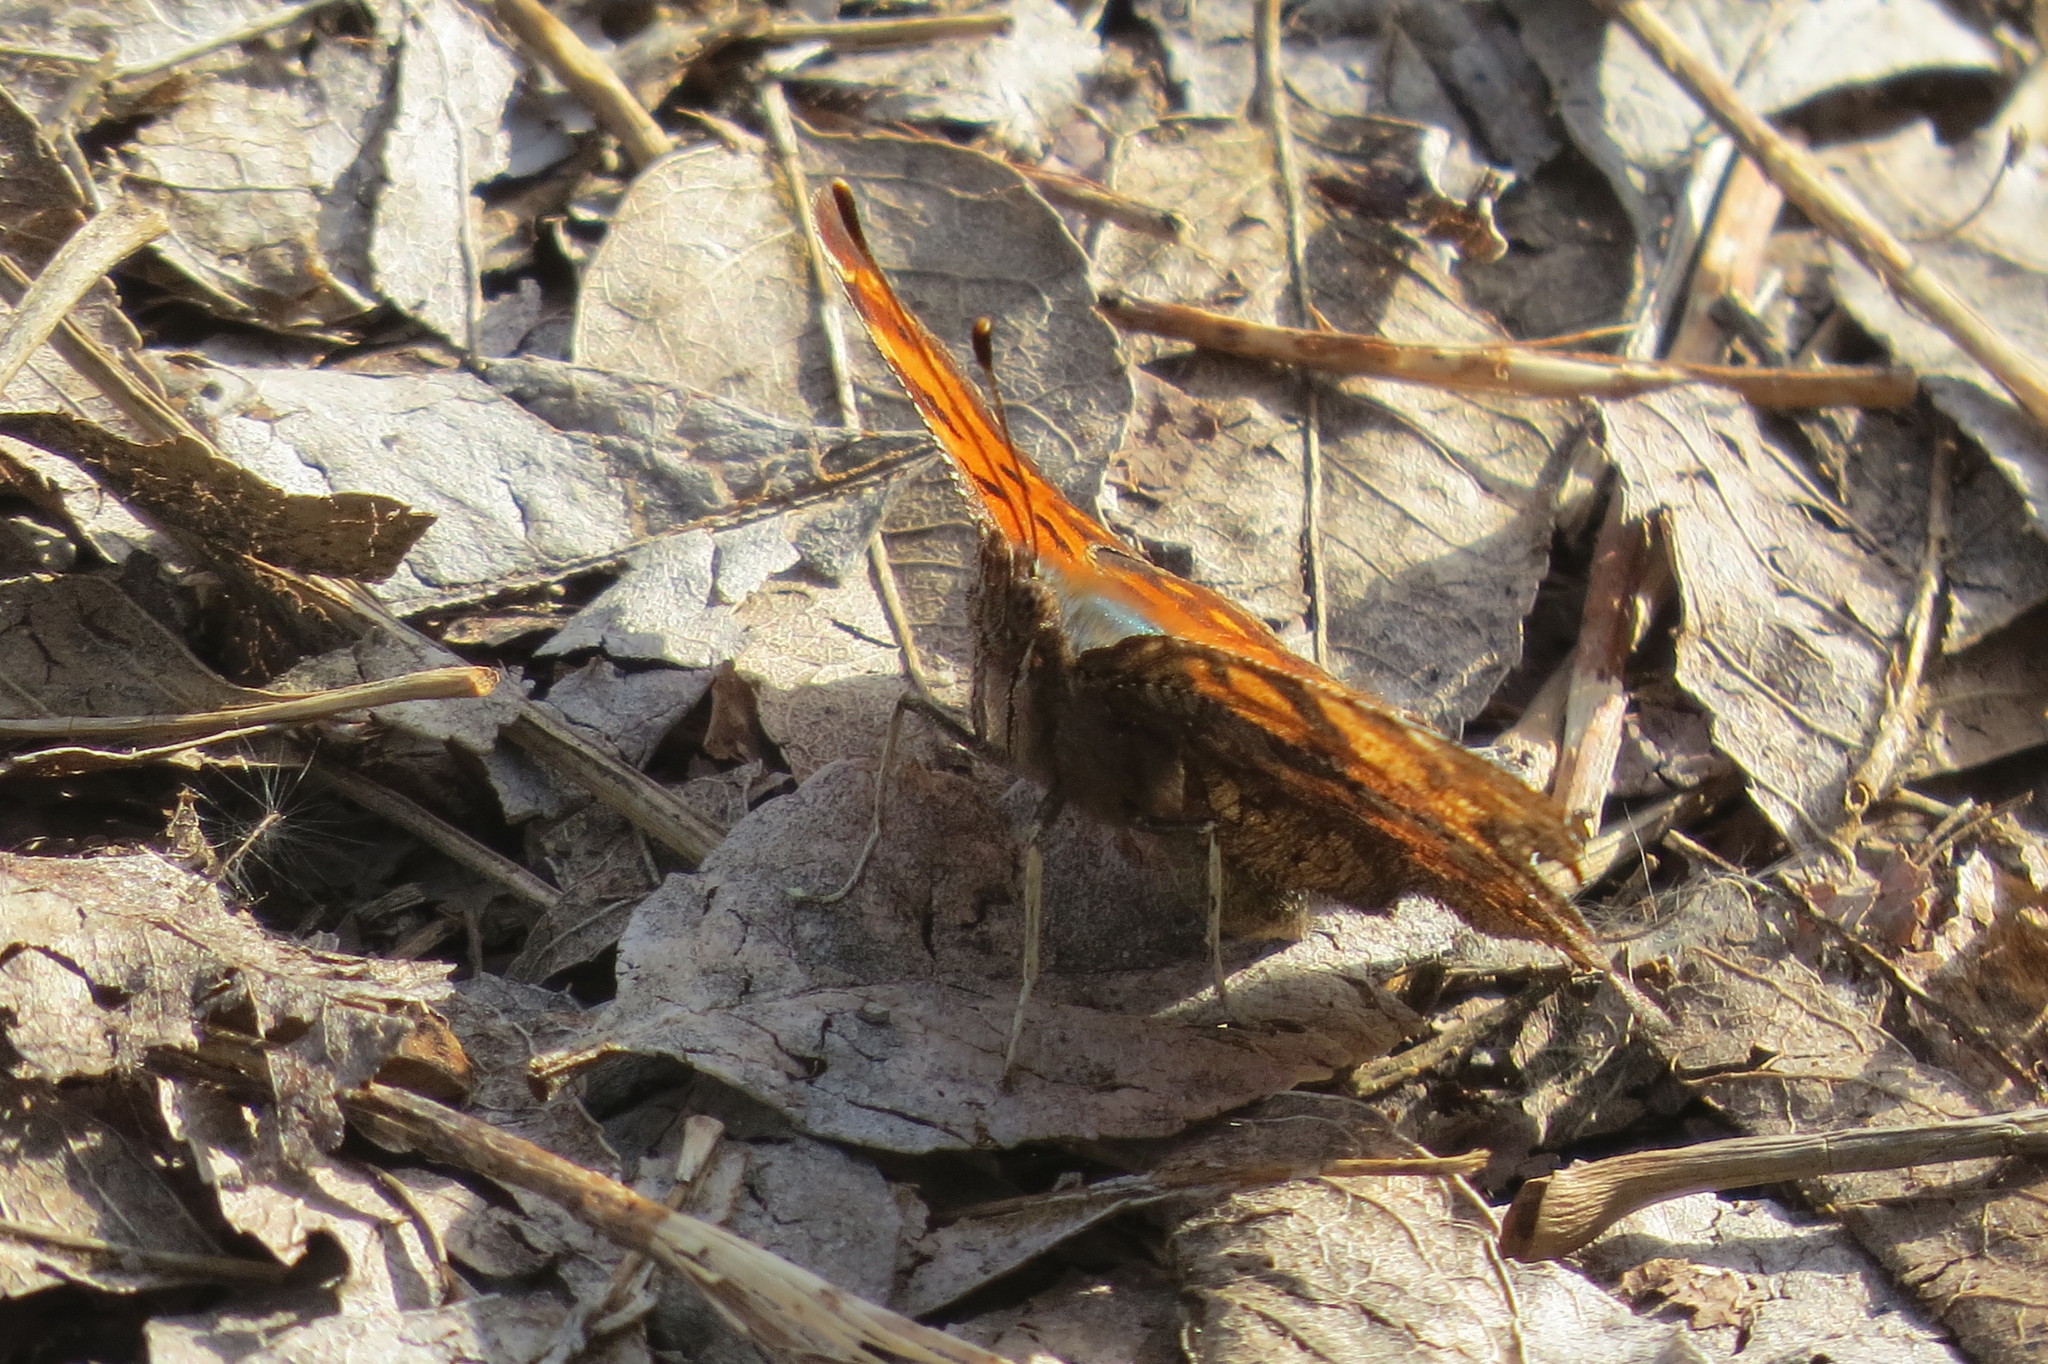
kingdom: Animalia
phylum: Arthropoda
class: Insecta
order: Lepidoptera
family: Nymphalidae
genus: Polygonia
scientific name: Polygonia c-album
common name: Comma
